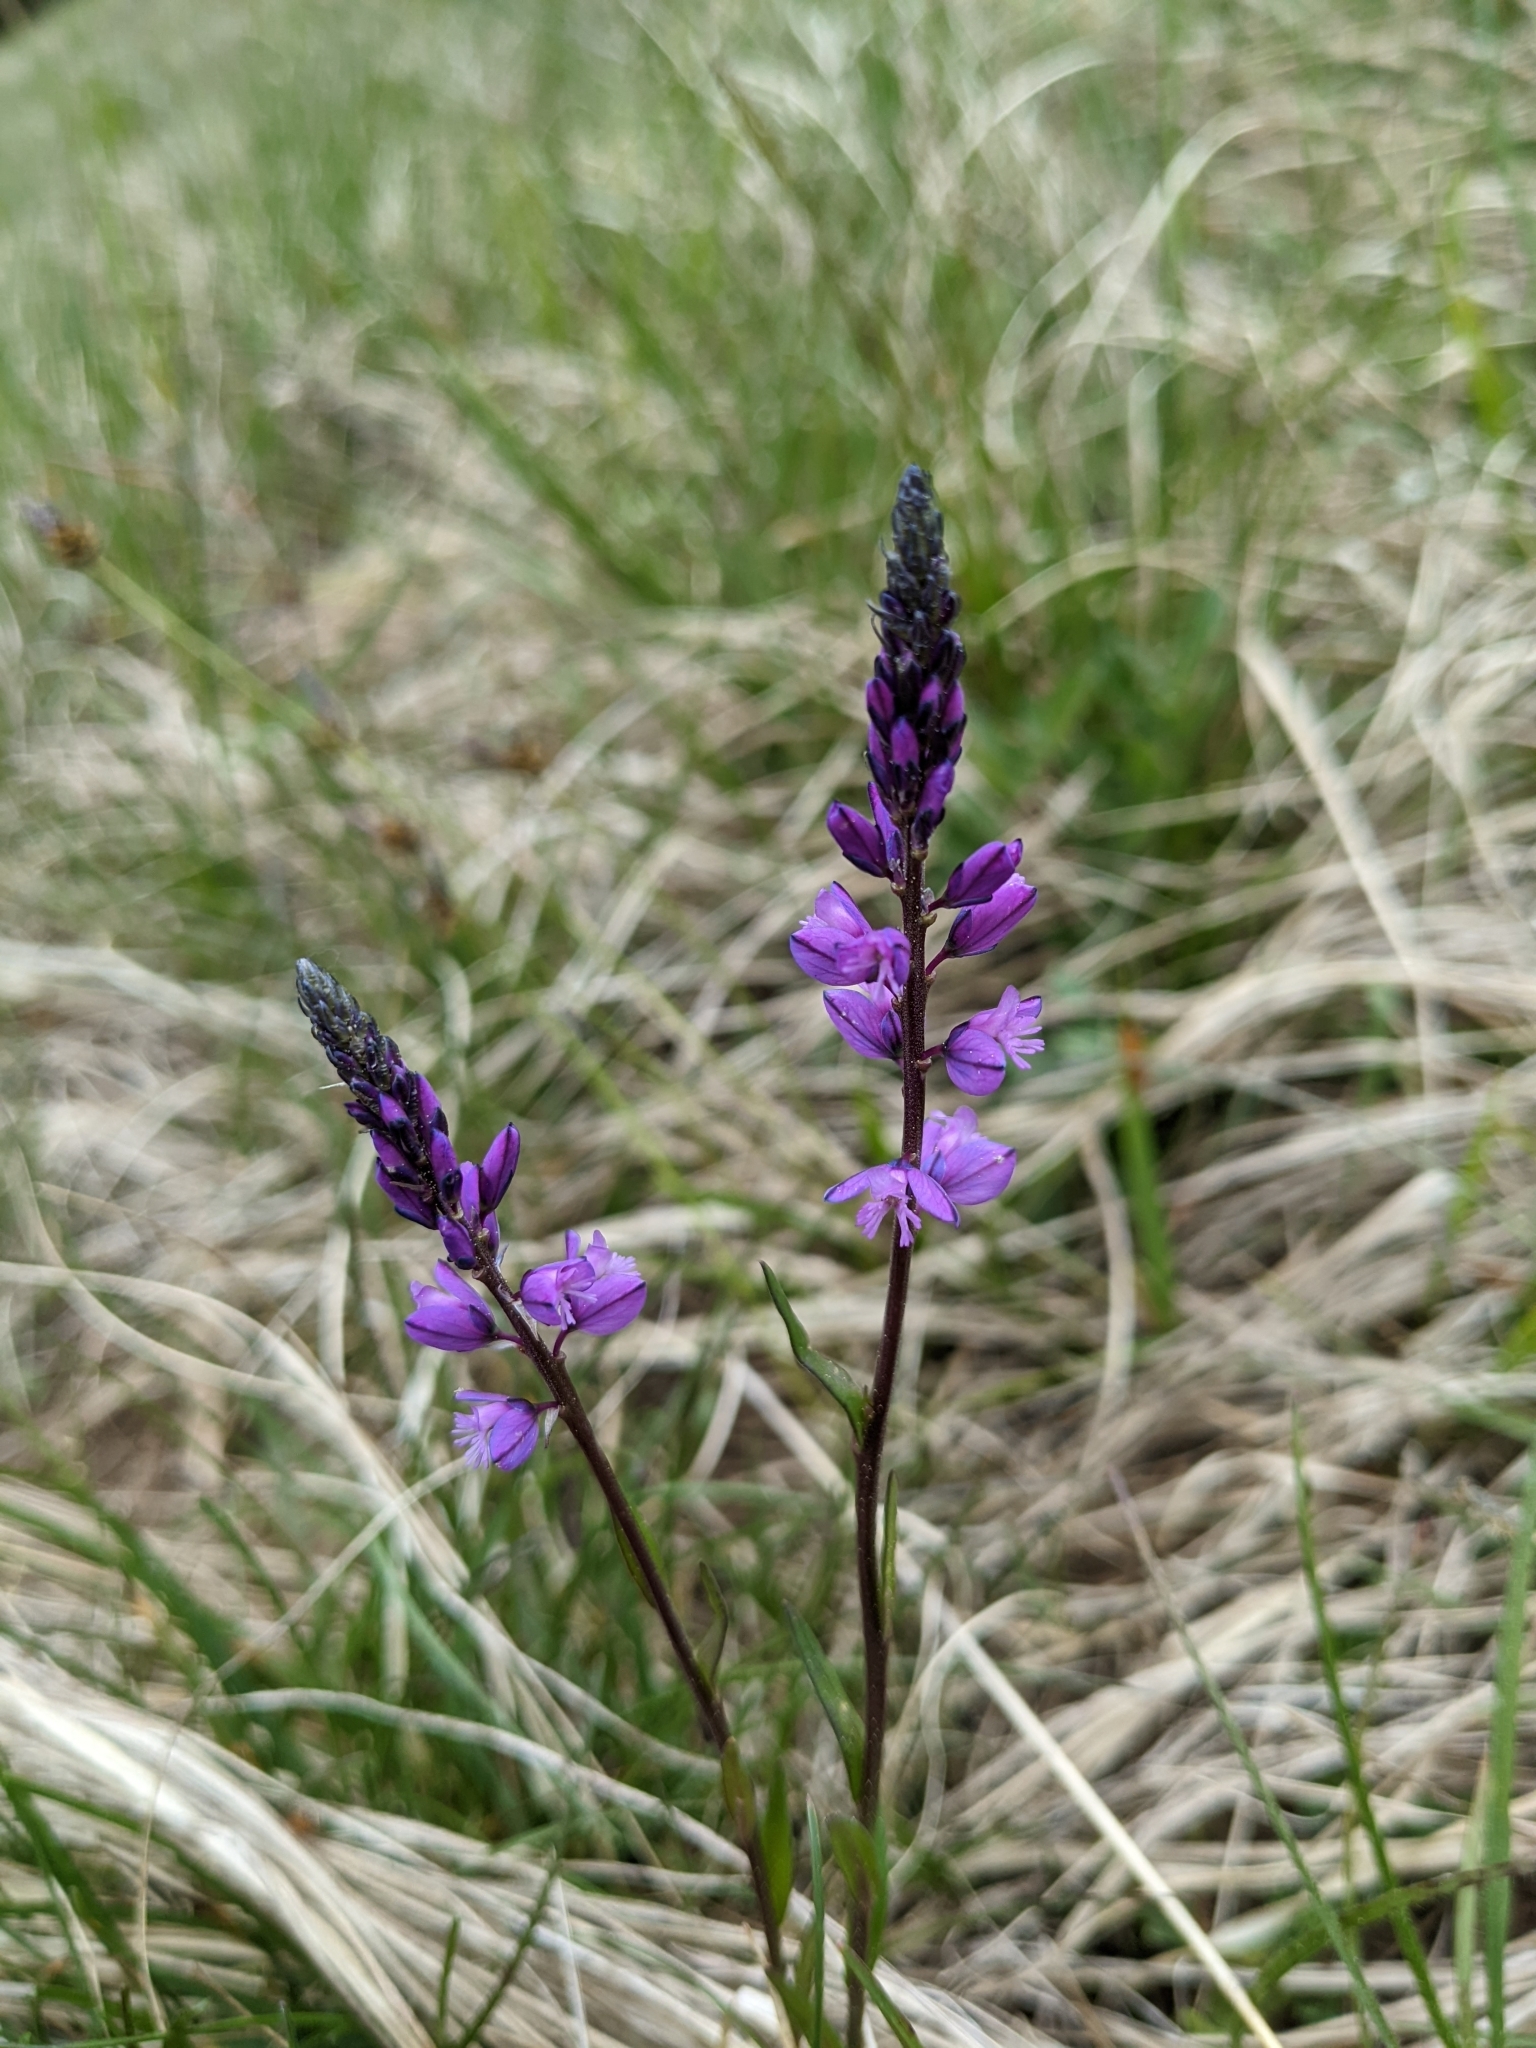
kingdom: Plantae
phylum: Tracheophyta
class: Magnoliopsida
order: Fabales
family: Polygalaceae
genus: Polygala
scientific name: Polygala comosa
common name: Tufted milkwort
